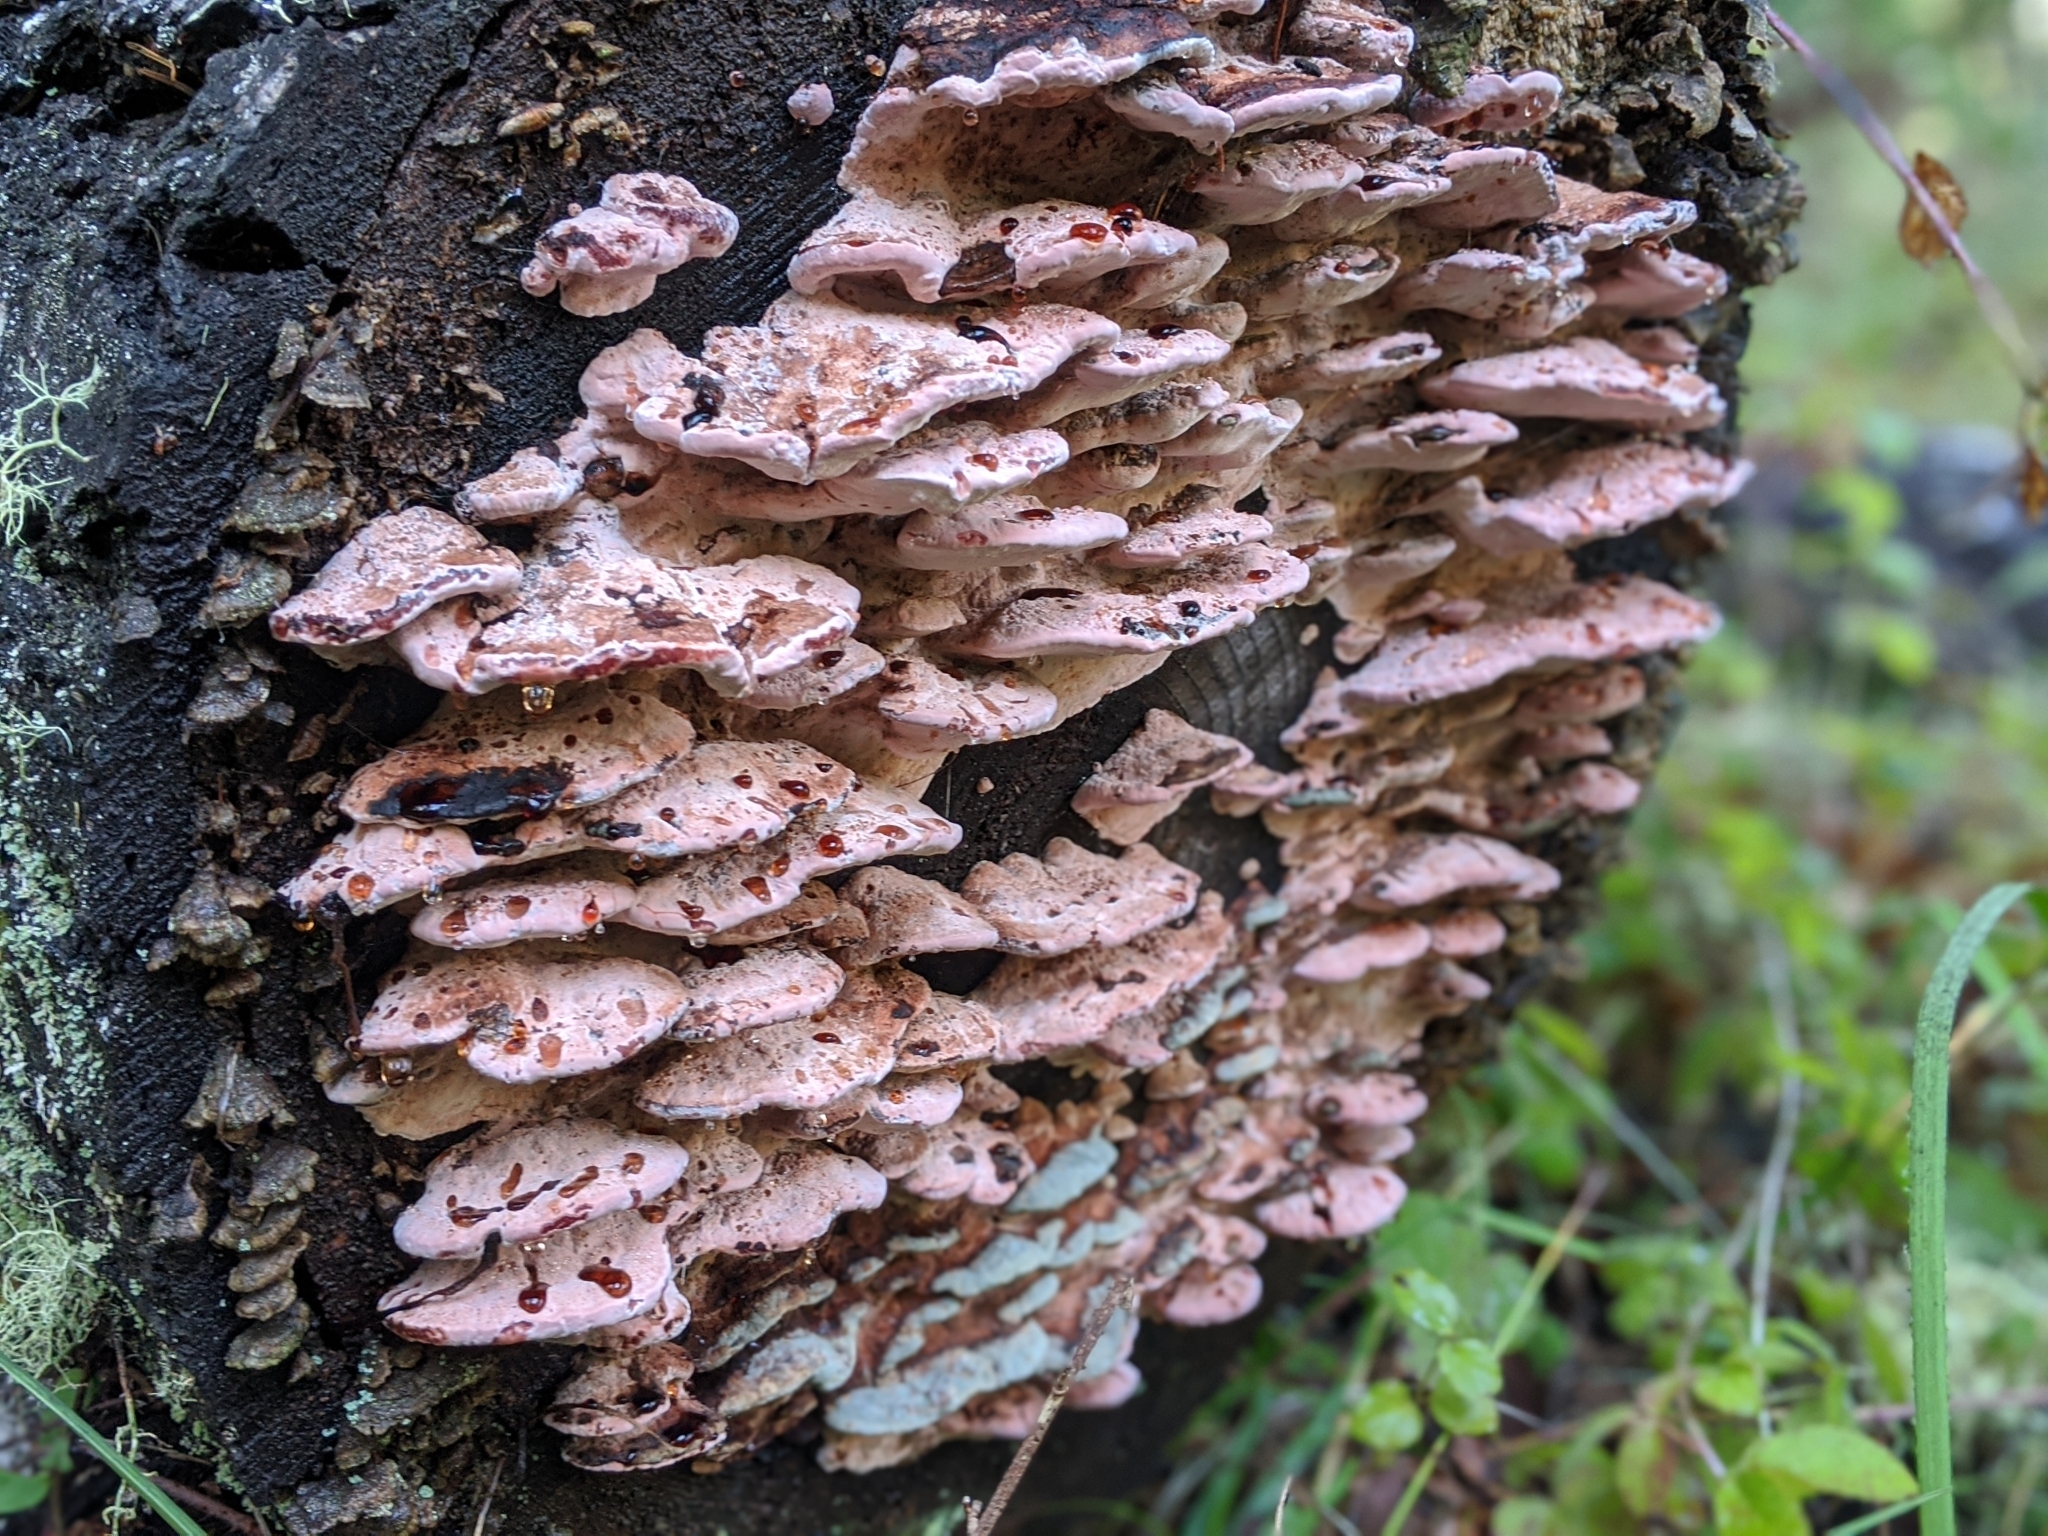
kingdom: Fungi
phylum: Basidiomycota
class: Agaricomycetes
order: Polyporales
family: Fomitopsidaceae
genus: Rhodofomes
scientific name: Rhodofomes cajanderi
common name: Rosy conk
